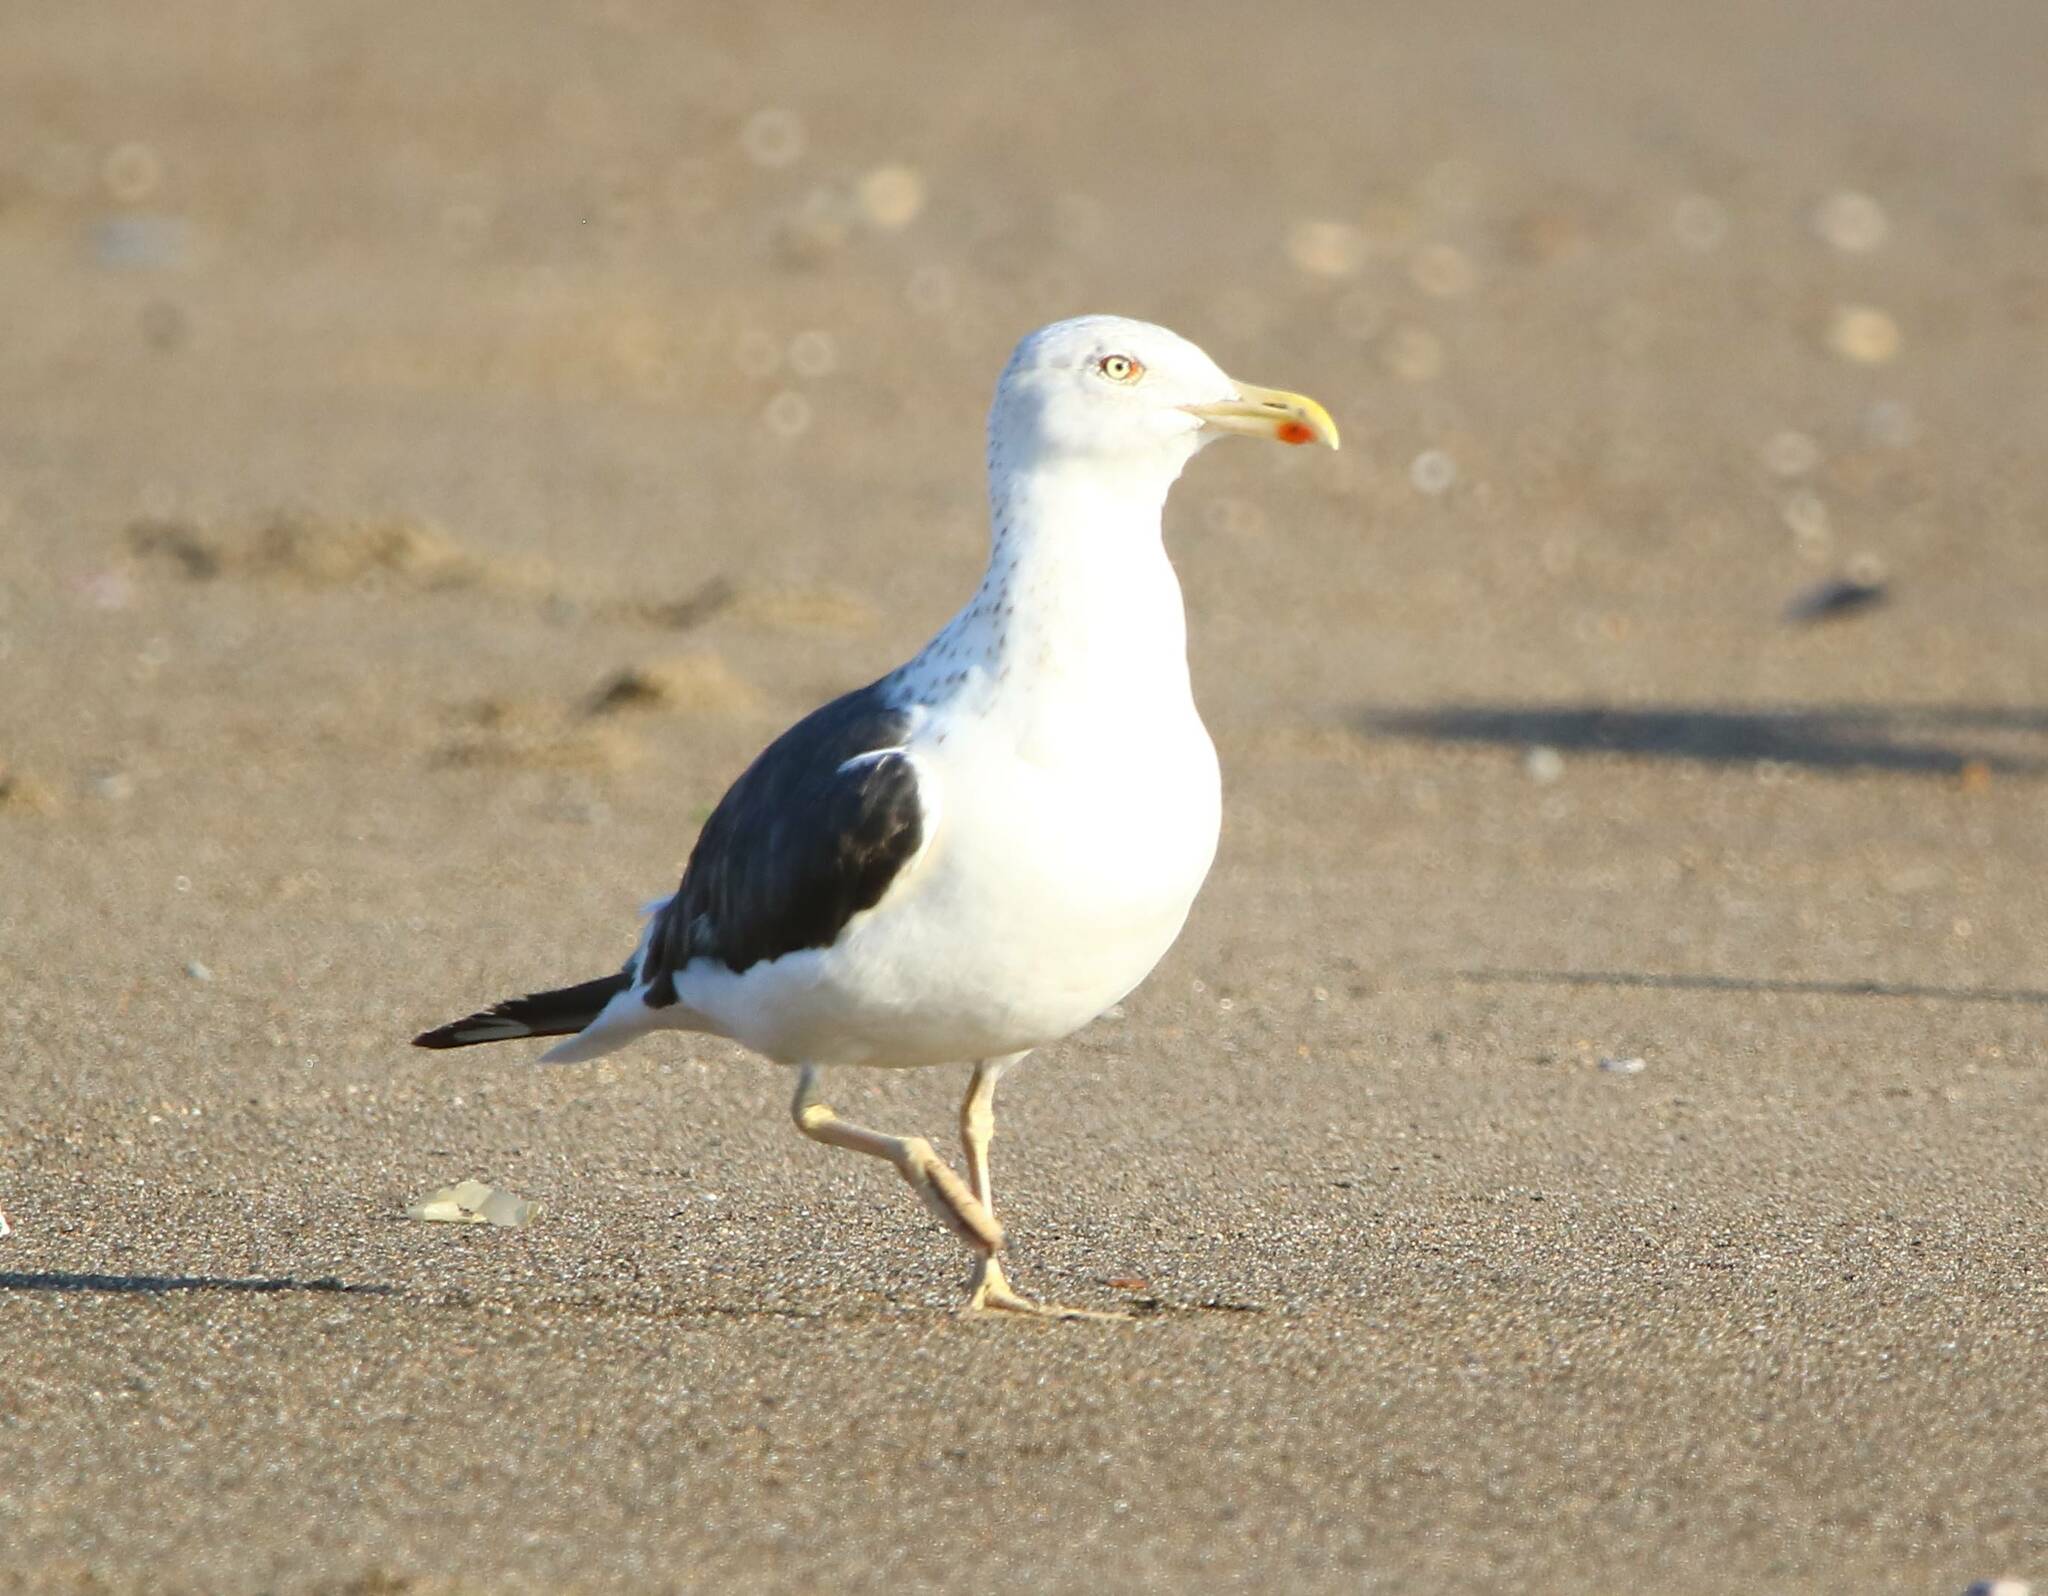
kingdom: Animalia
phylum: Chordata
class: Aves
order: Charadriiformes
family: Laridae
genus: Larus
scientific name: Larus fuscus
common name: Lesser black-backed gull
